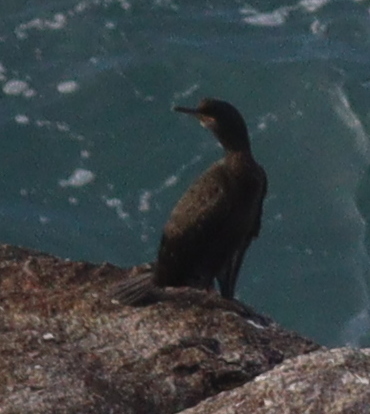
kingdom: Animalia
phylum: Chordata
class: Aves
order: Suliformes
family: Phalacrocoracidae
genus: Phalacrocorax
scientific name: Phalacrocorax aristotelis
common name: European shag
